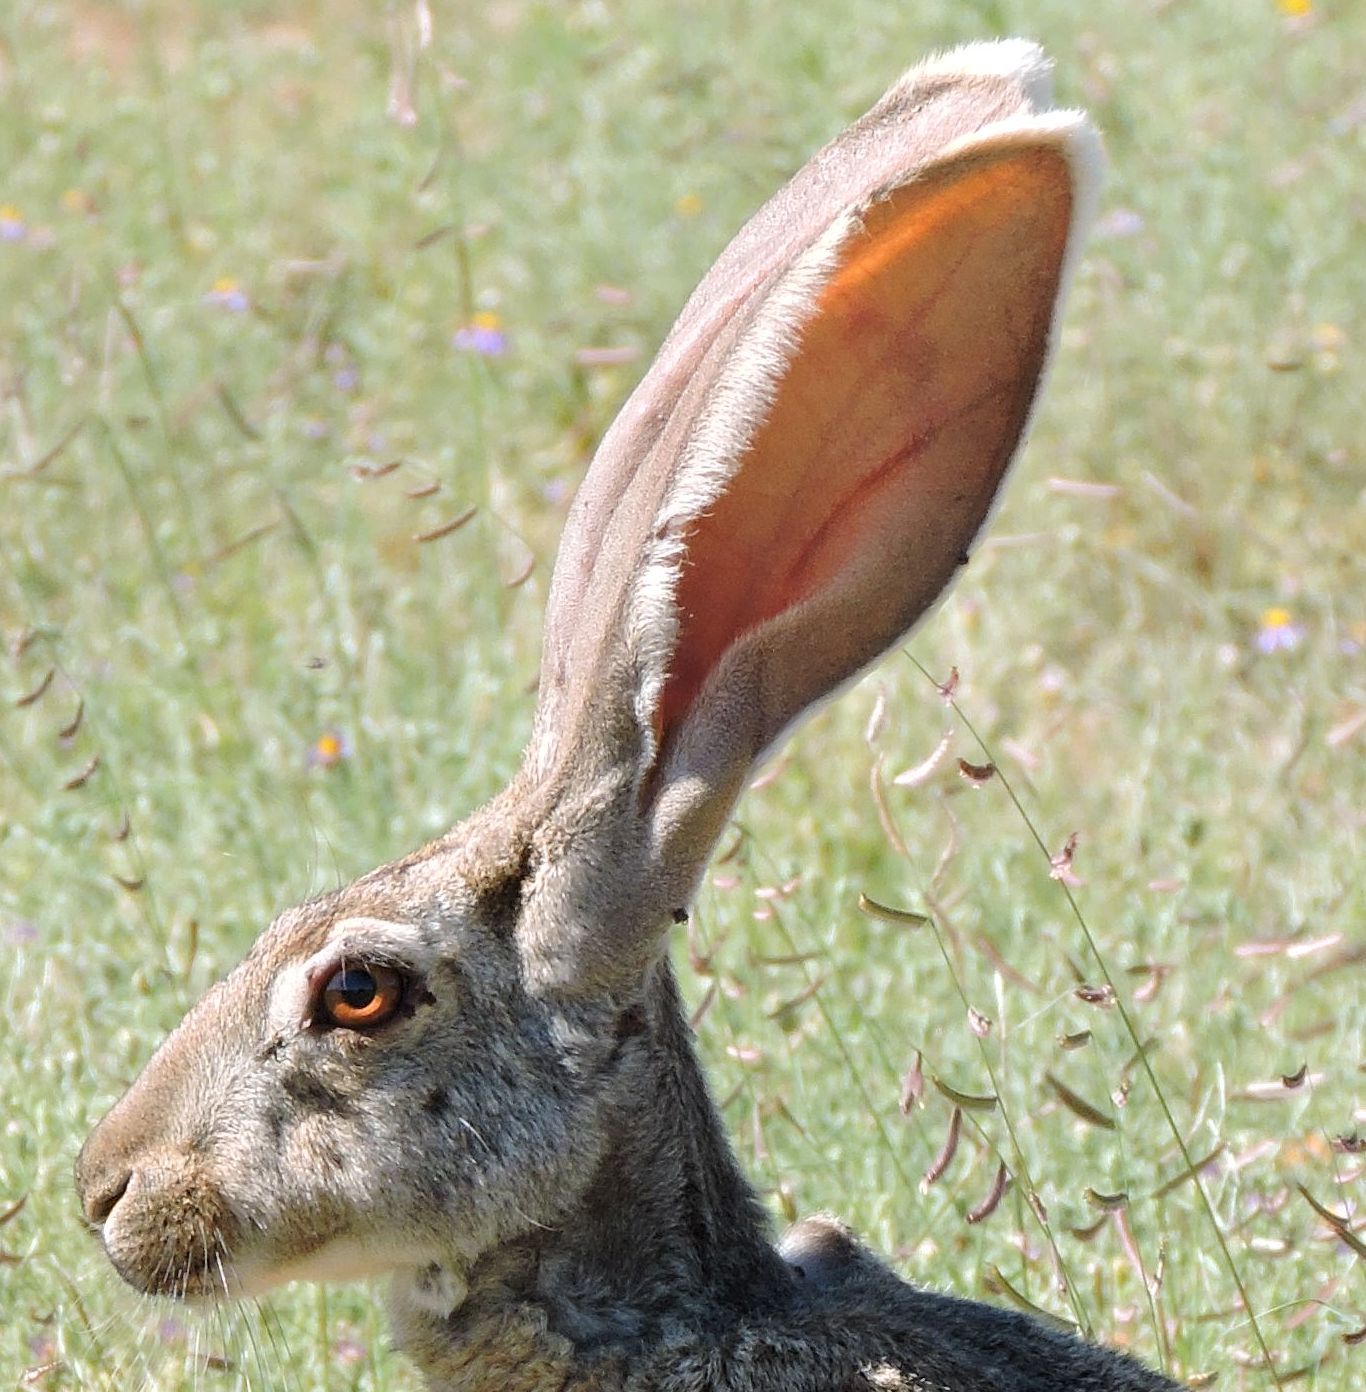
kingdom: Animalia
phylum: Chordata
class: Mammalia
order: Lagomorpha
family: Leporidae
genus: Lepus
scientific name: Lepus alleni
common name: Antelope jackrabbit
